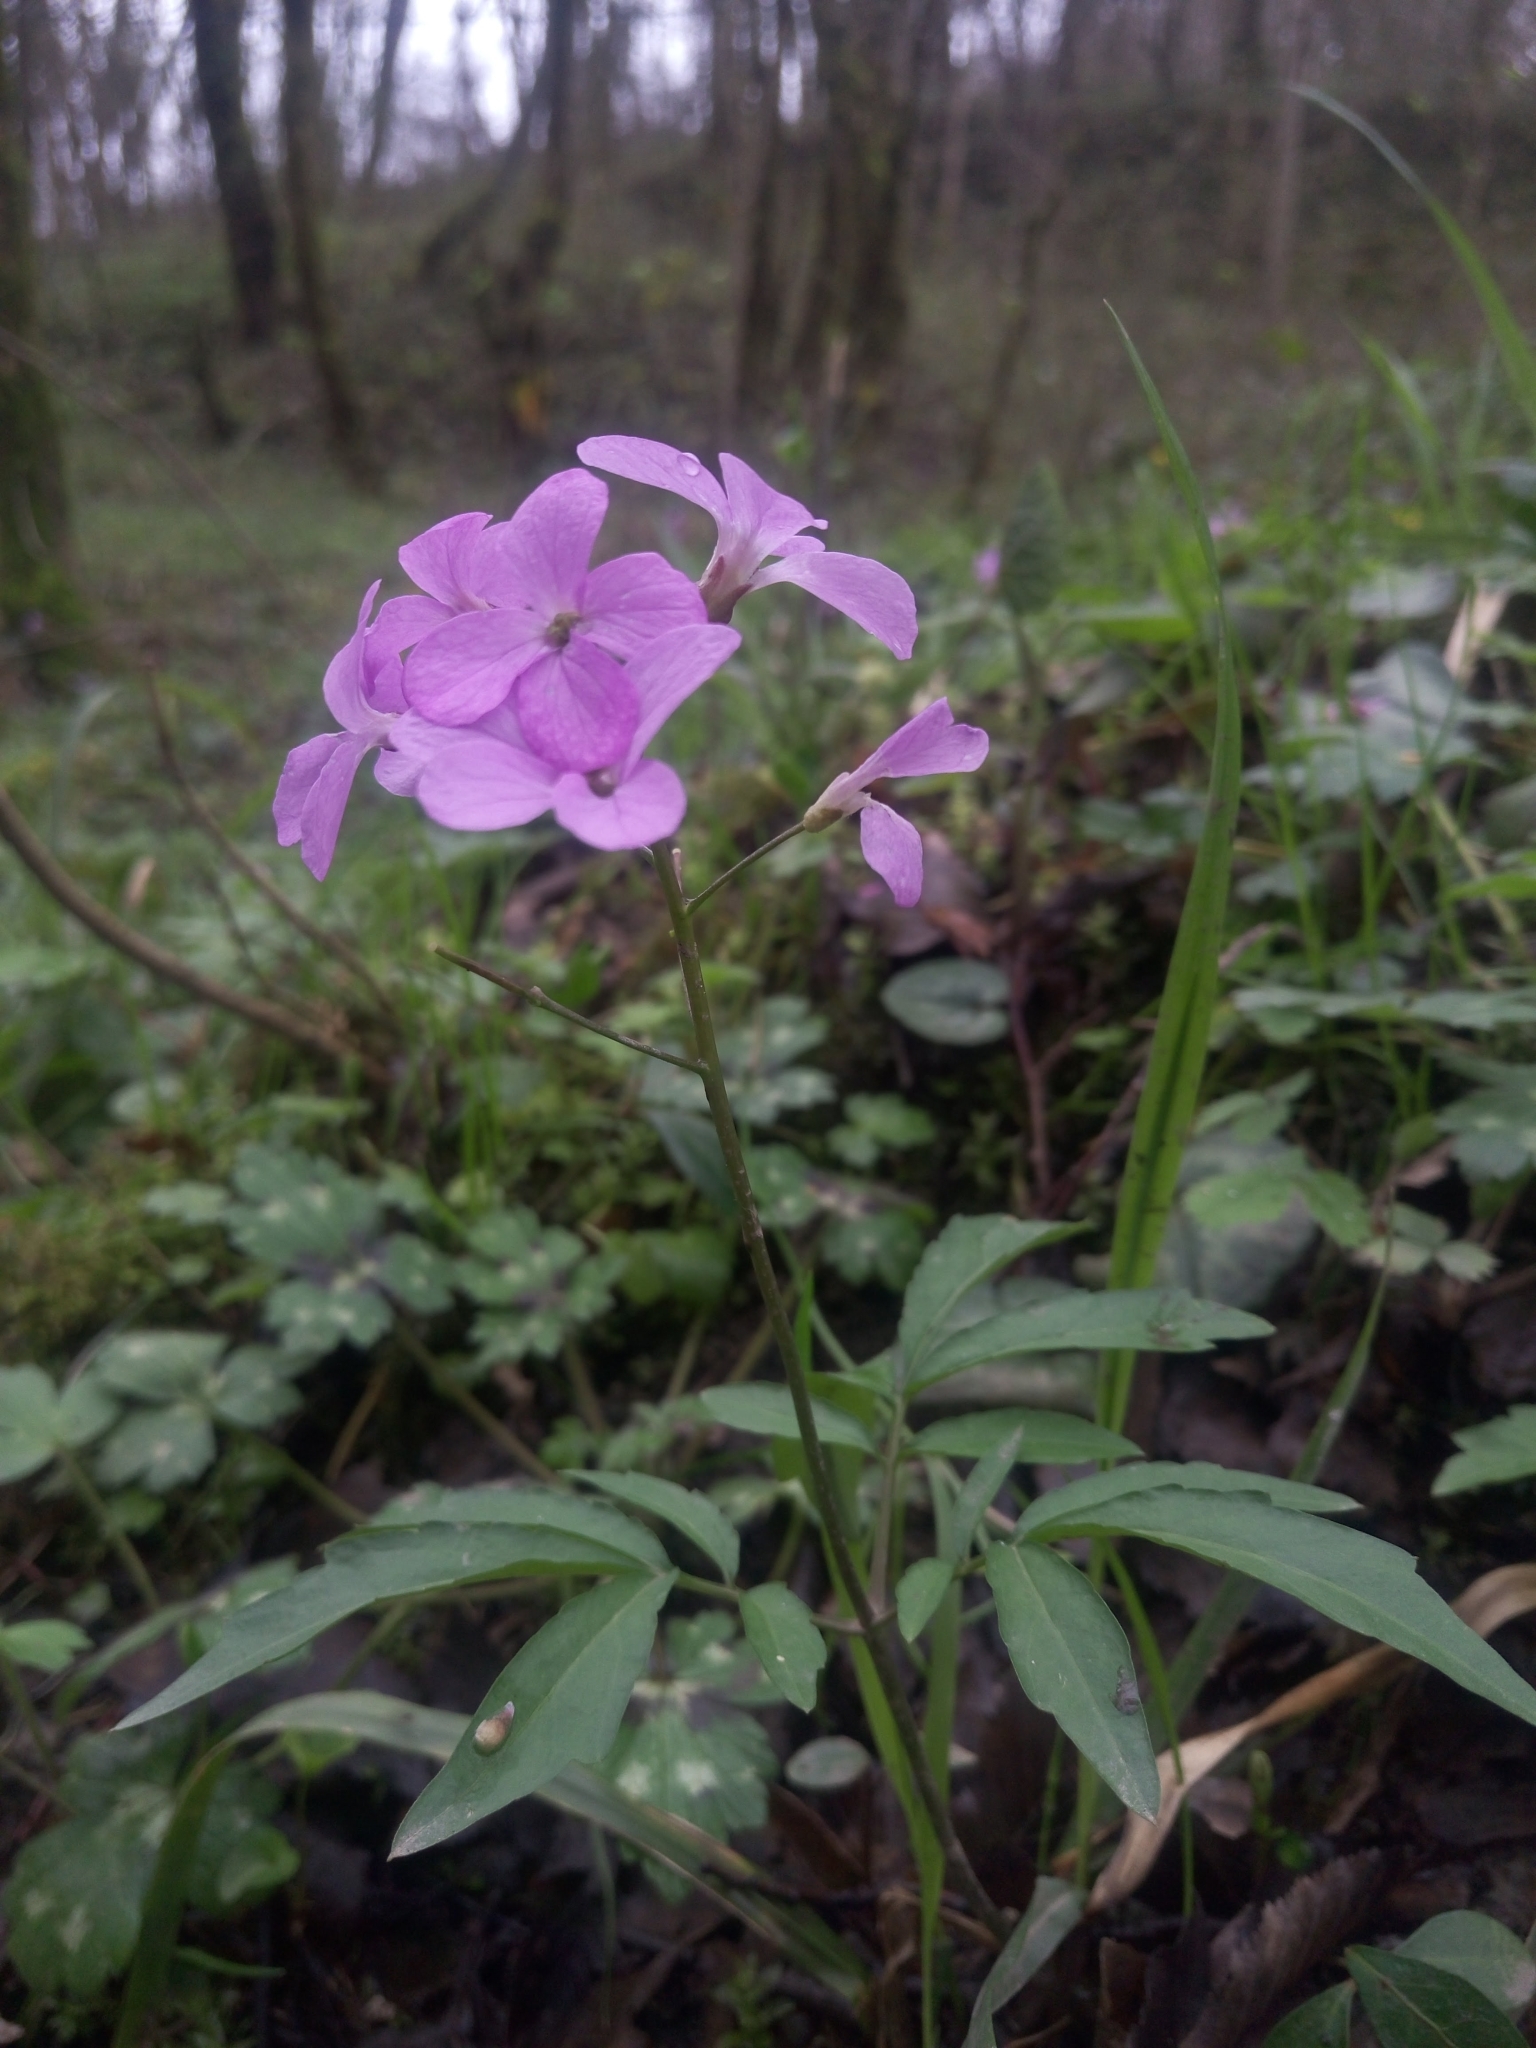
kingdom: Plantae
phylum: Tracheophyta
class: Magnoliopsida
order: Brassicales
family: Brassicaceae
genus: Cardamine
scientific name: Cardamine quinquefolia
